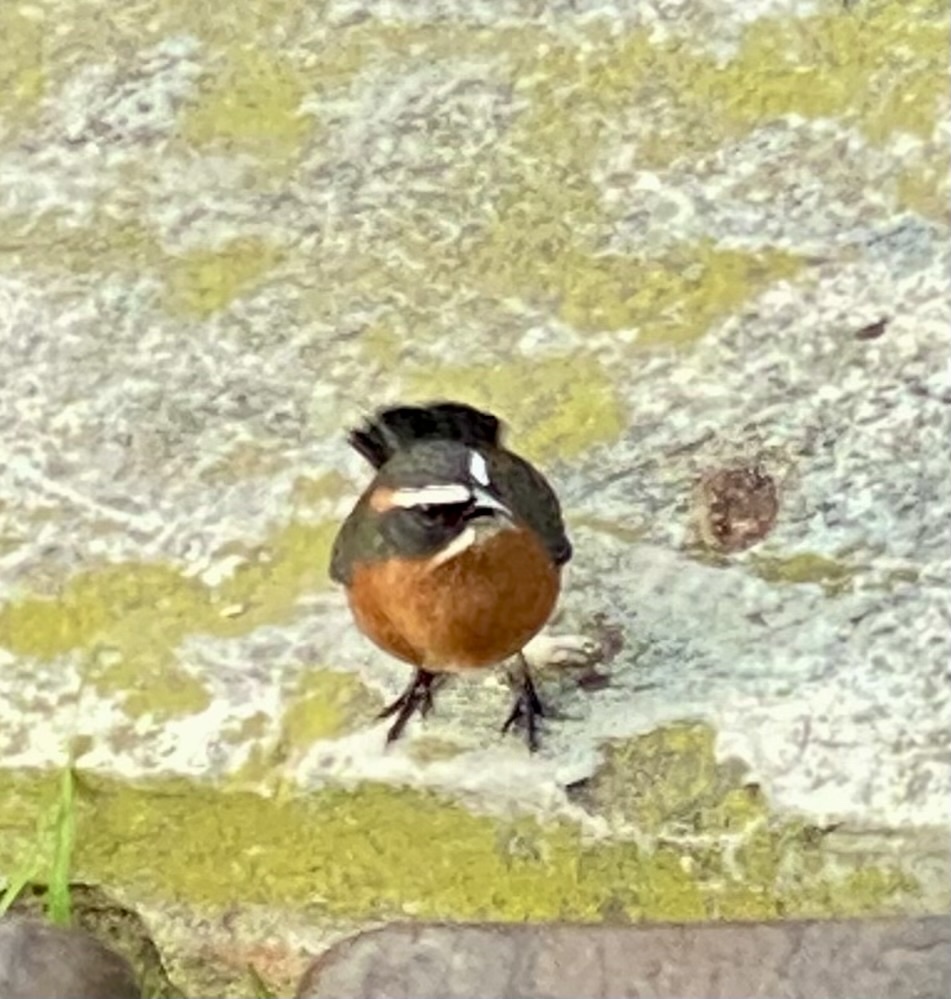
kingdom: Animalia
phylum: Chordata
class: Aves
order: Passeriformes
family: Thraupidae
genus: Poospiza
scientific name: Poospiza nigrorufa
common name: Black-and-rufous warbling finch
